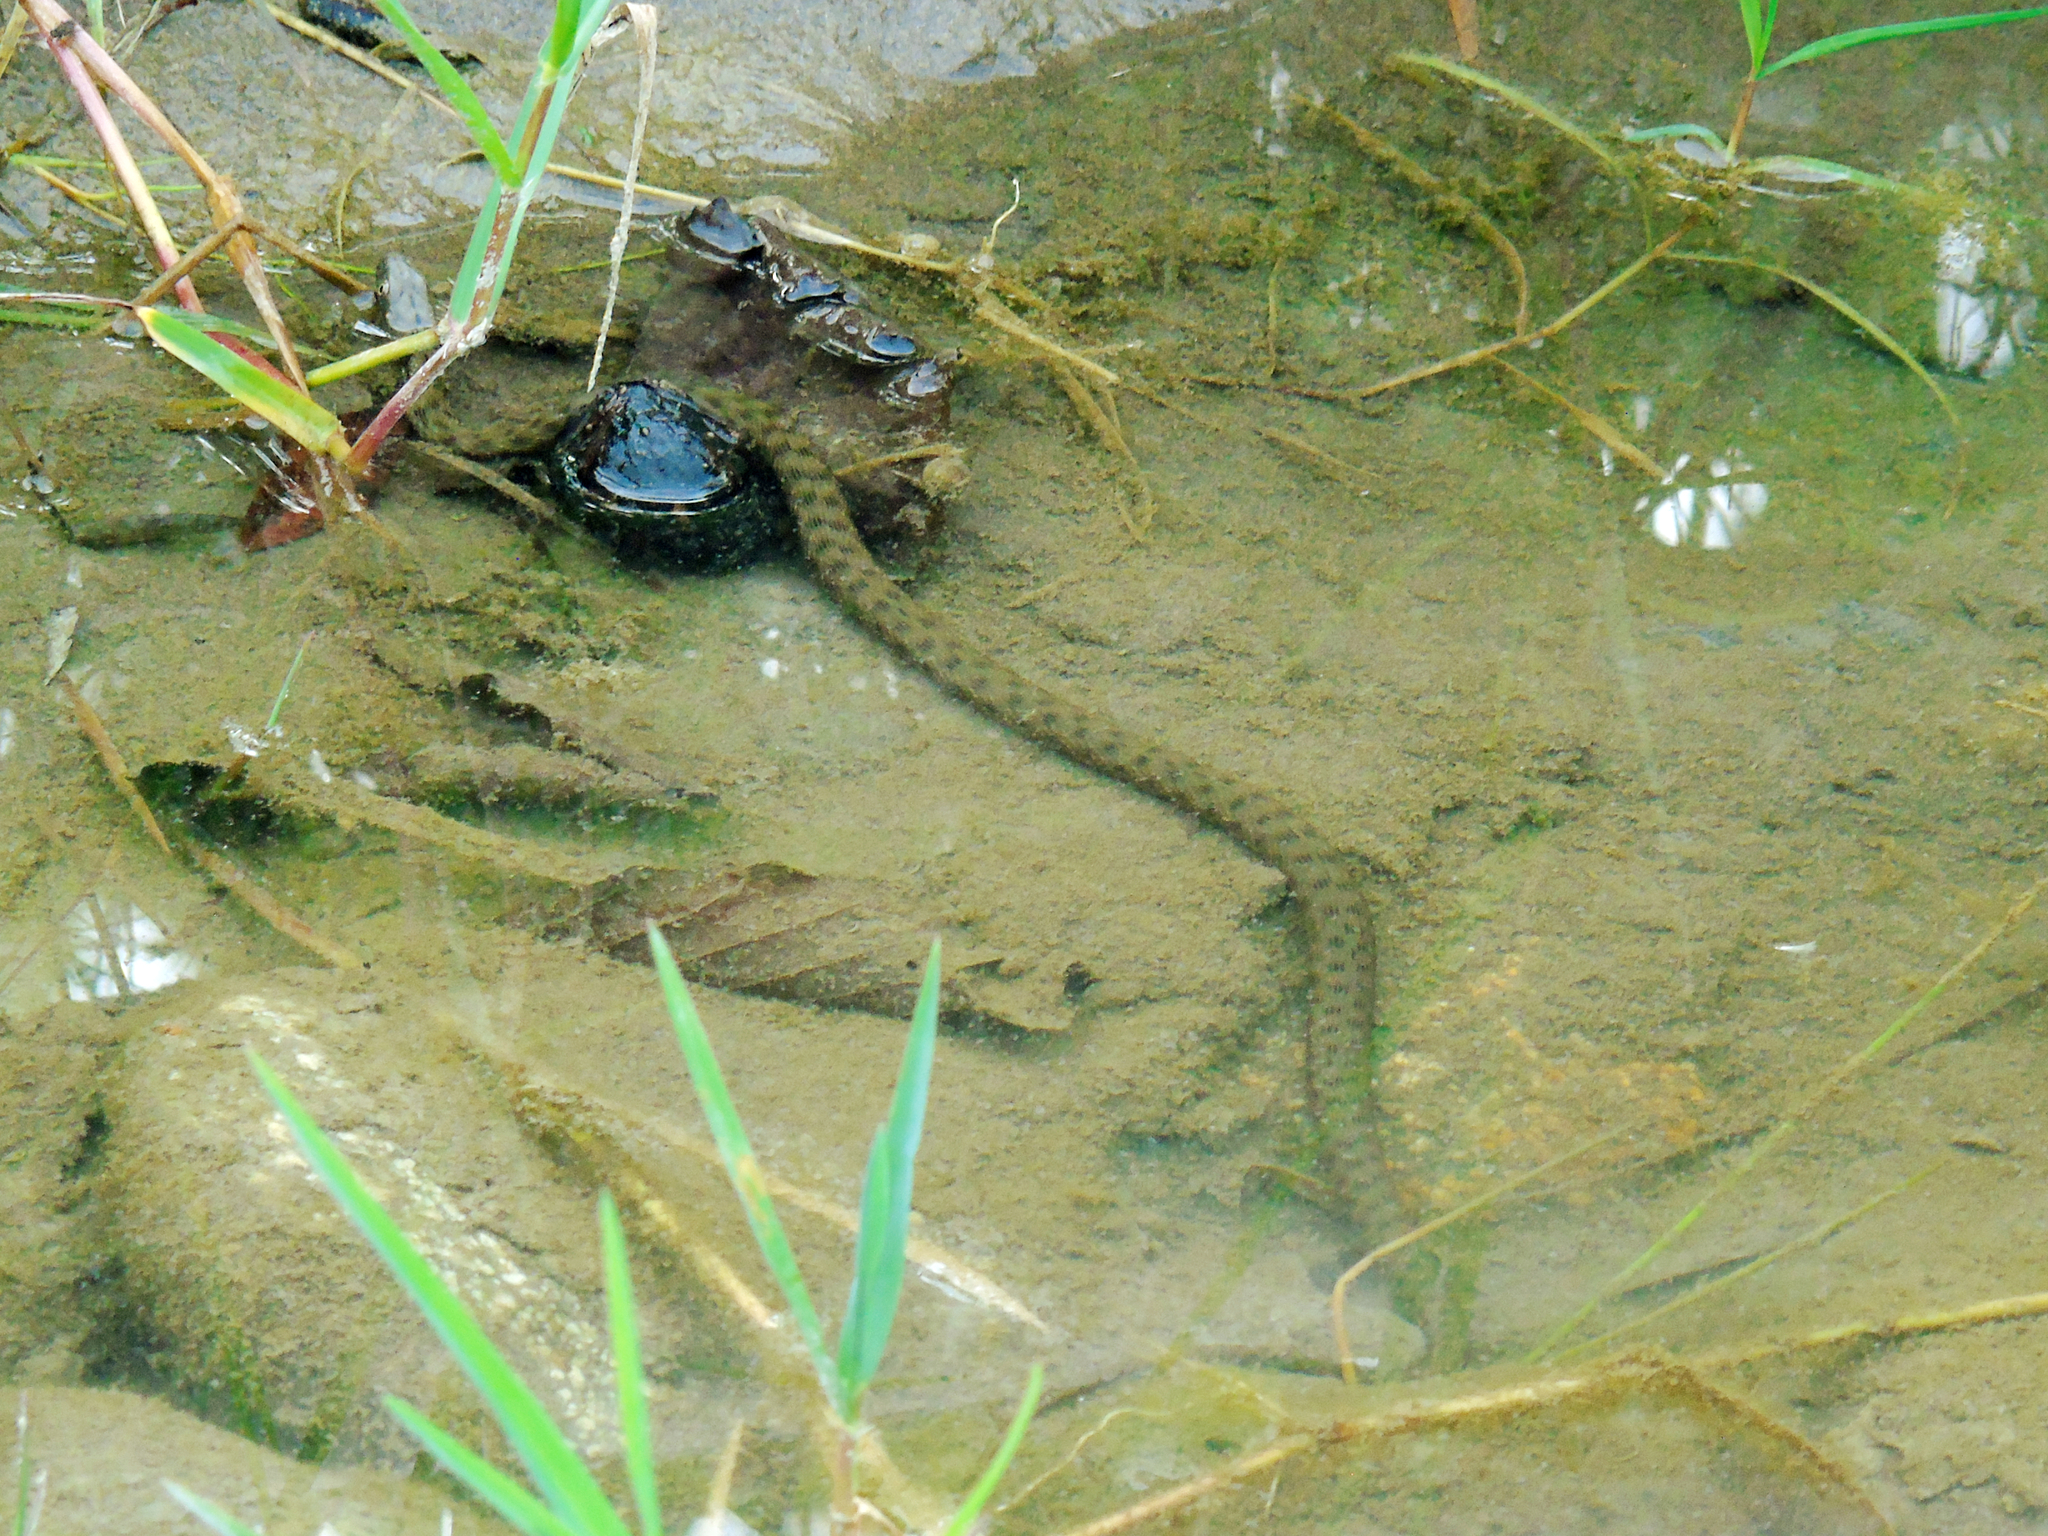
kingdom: Animalia
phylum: Chordata
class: Squamata
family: Colubridae
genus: Natrix
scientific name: Natrix tessellata
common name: Dice snake
